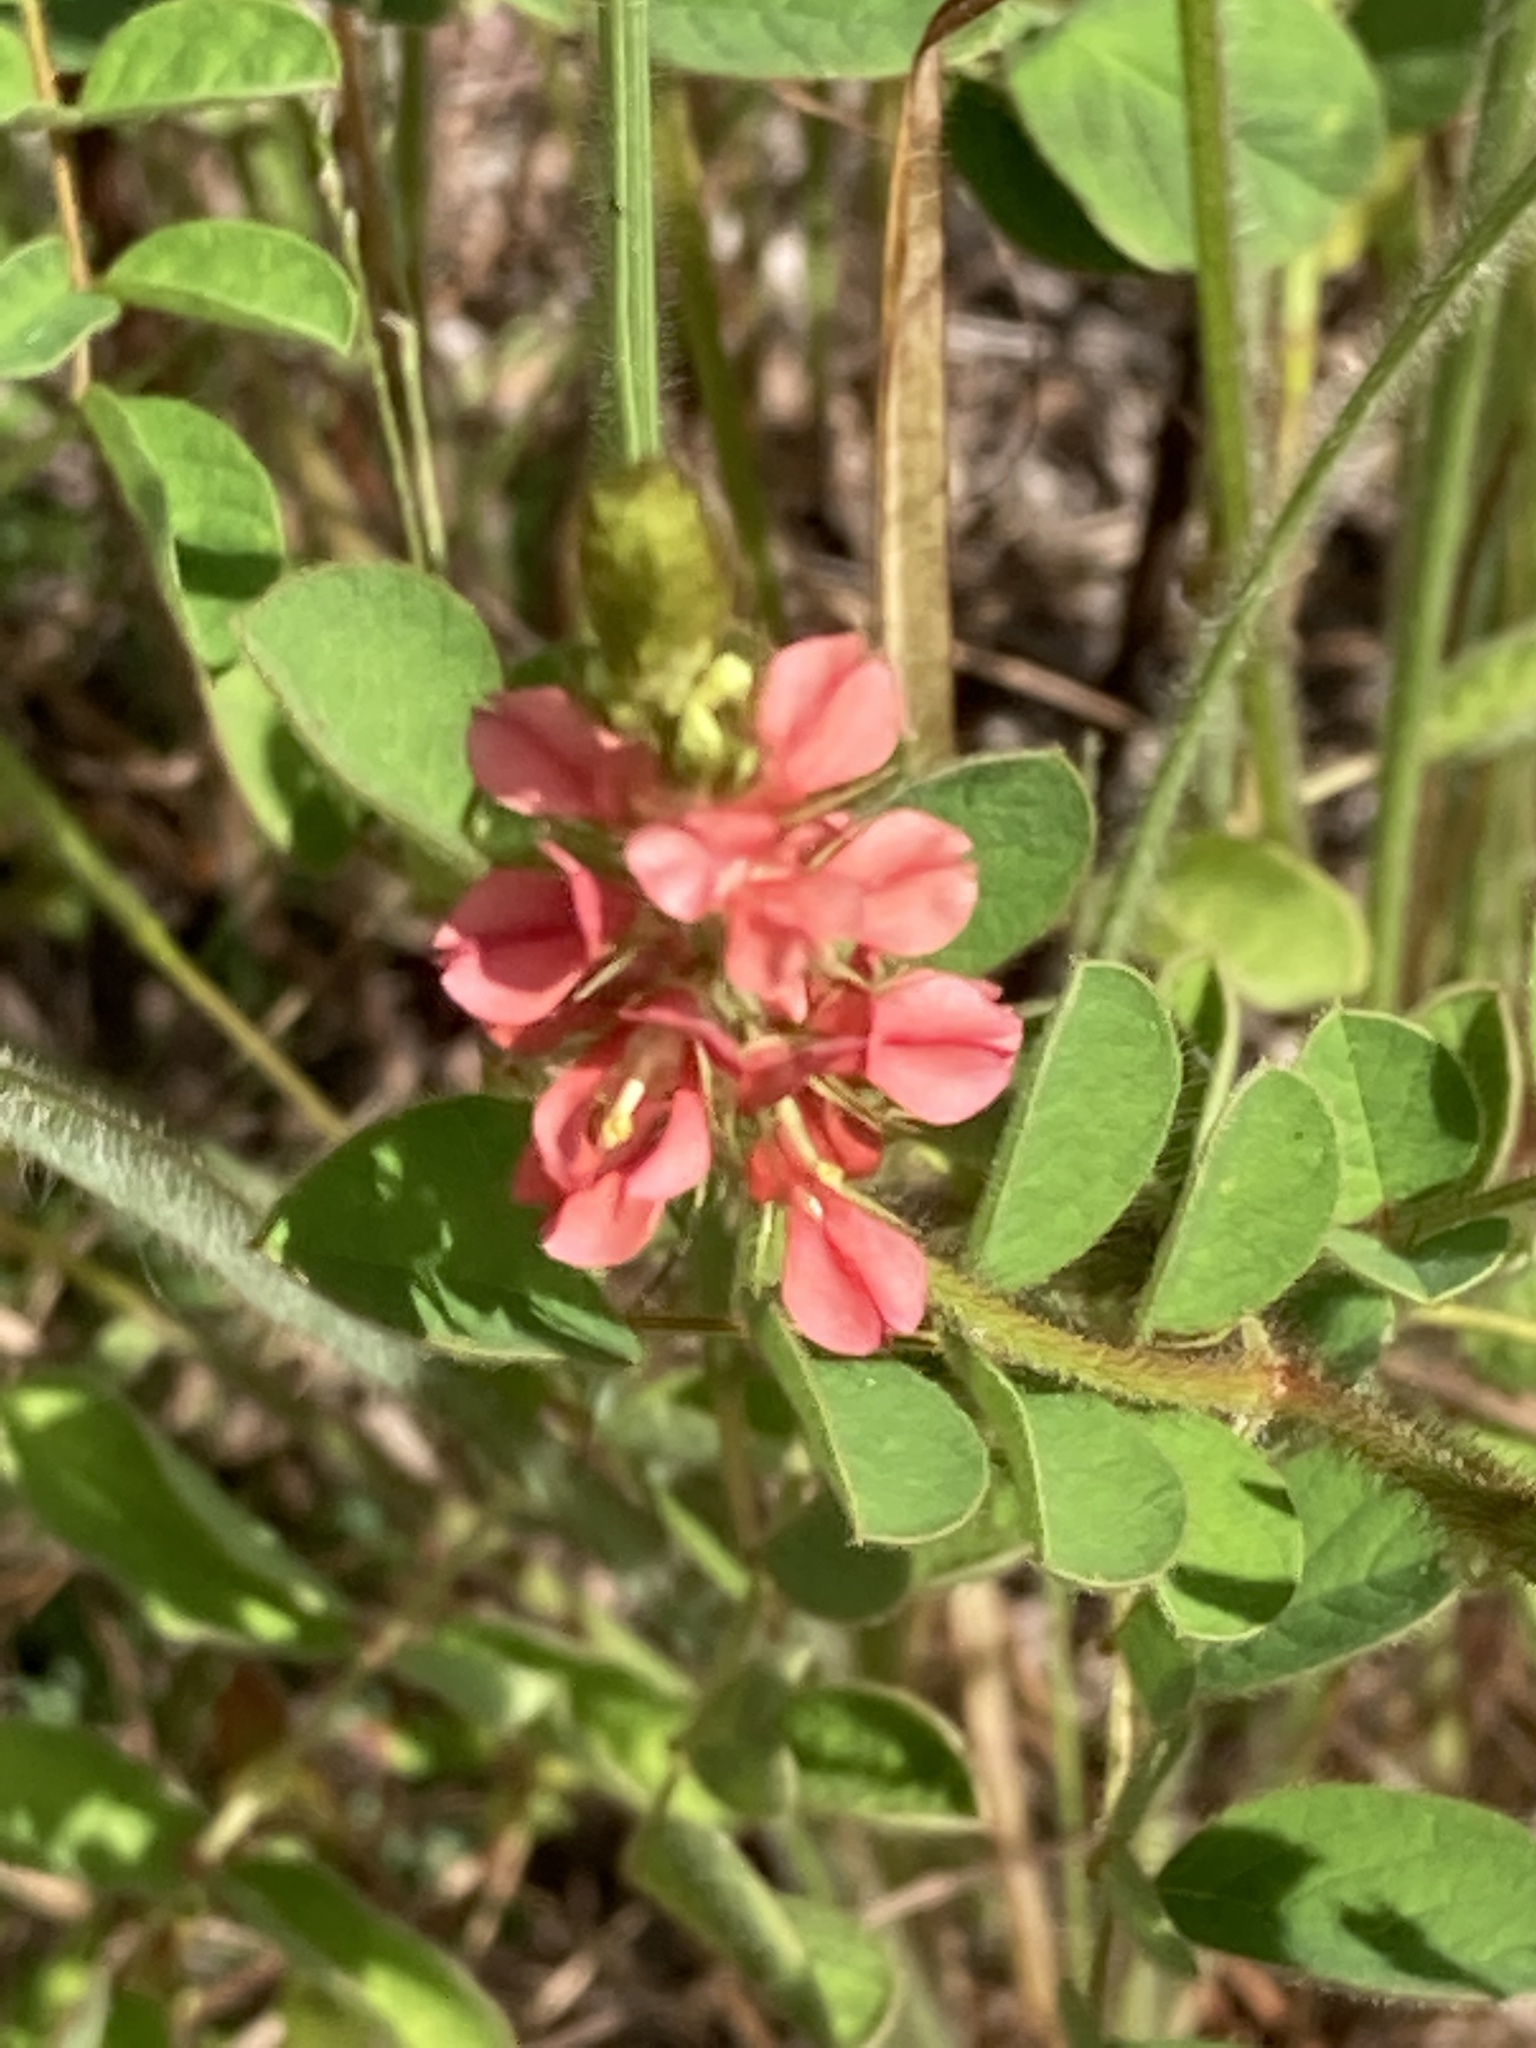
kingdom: Plantae
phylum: Tracheophyta
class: Magnoliopsida
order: Fabales
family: Fabaceae
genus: Indigofera
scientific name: Indigofera hirsuta
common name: Hairy indigo
